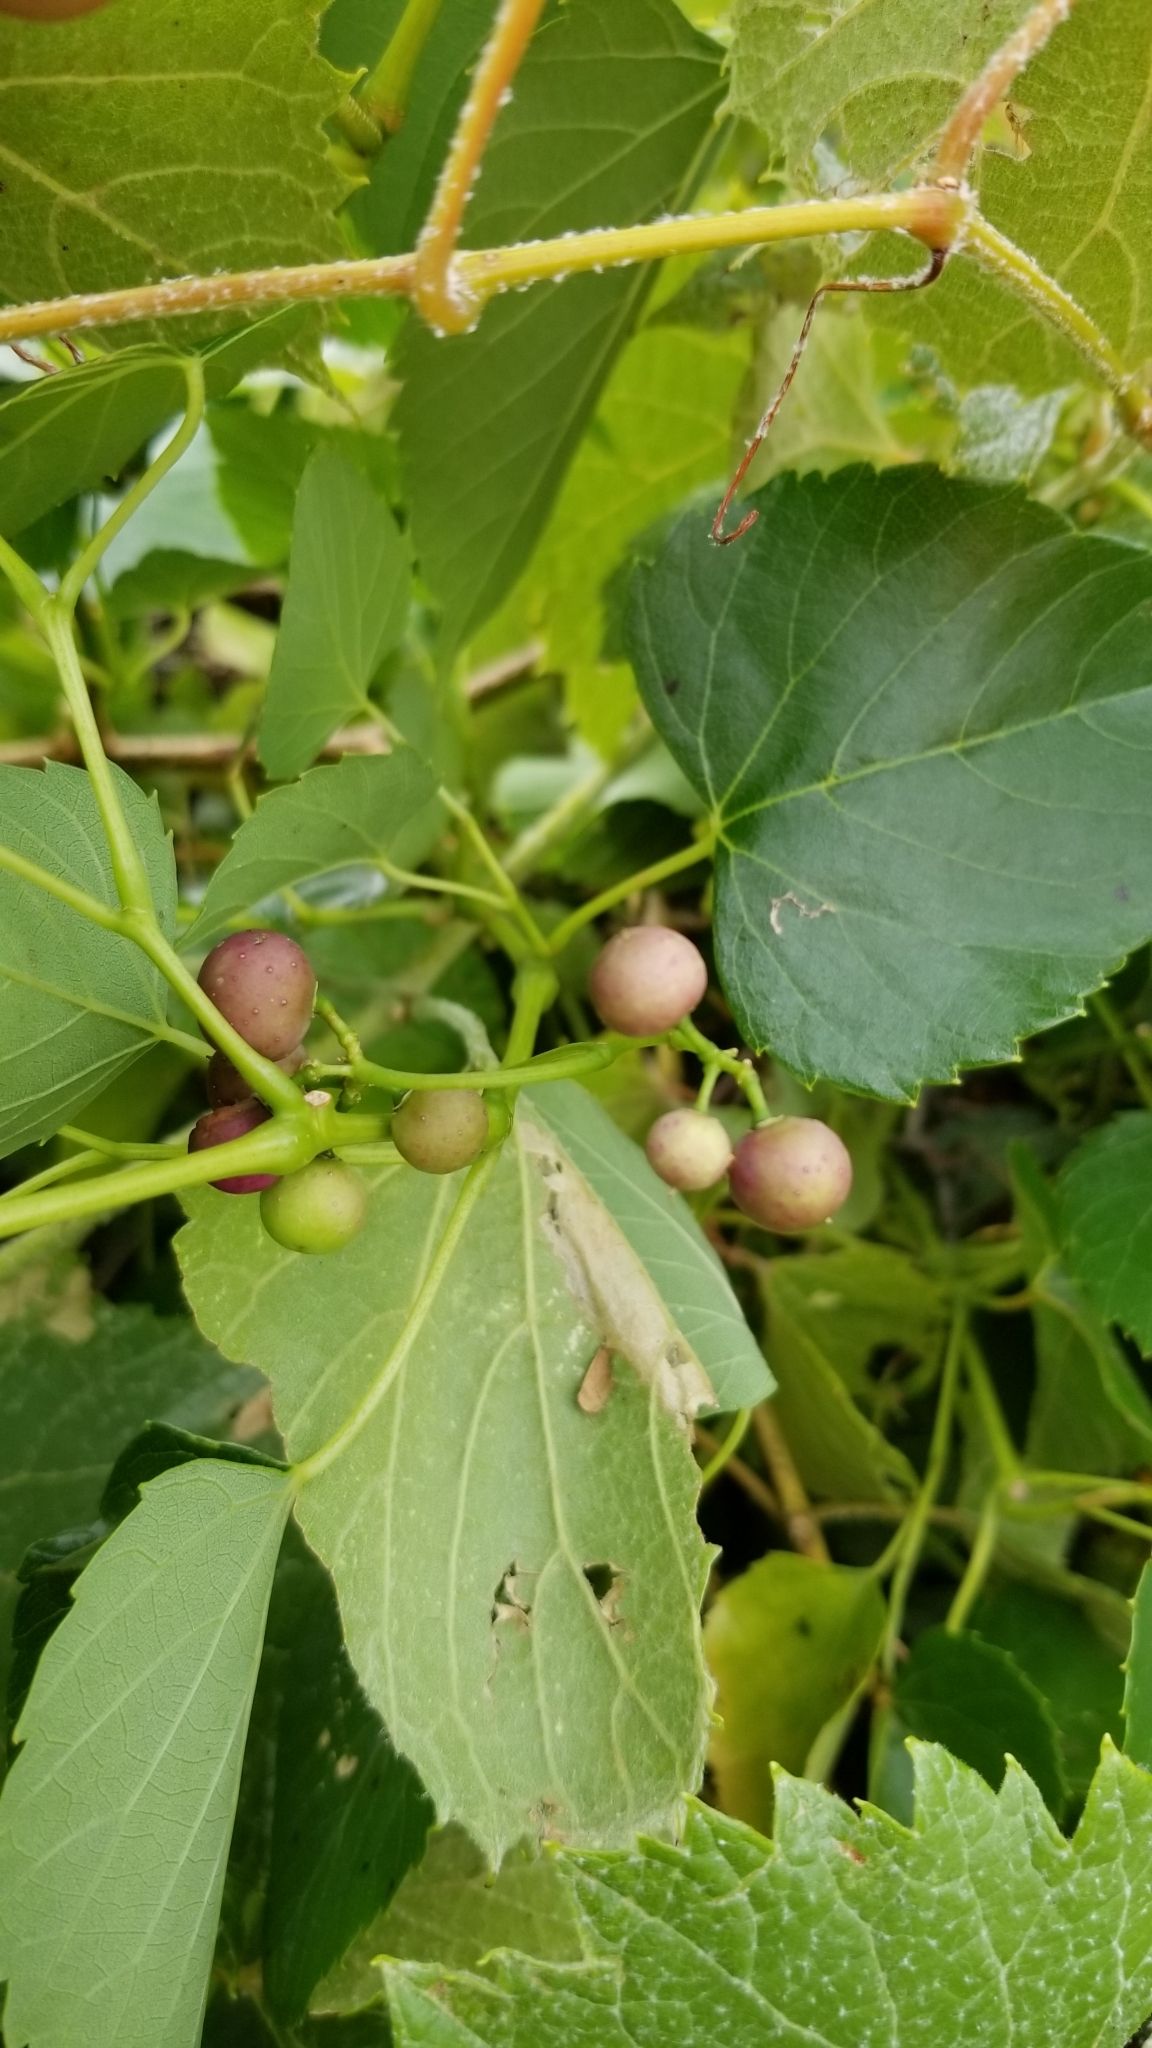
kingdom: Plantae
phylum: Tracheophyta
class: Magnoliopsida
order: Vitales
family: Vitaceae
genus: Ampelopsis
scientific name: Ampelopsis cordata
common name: Heart-leaf ampelopsis
